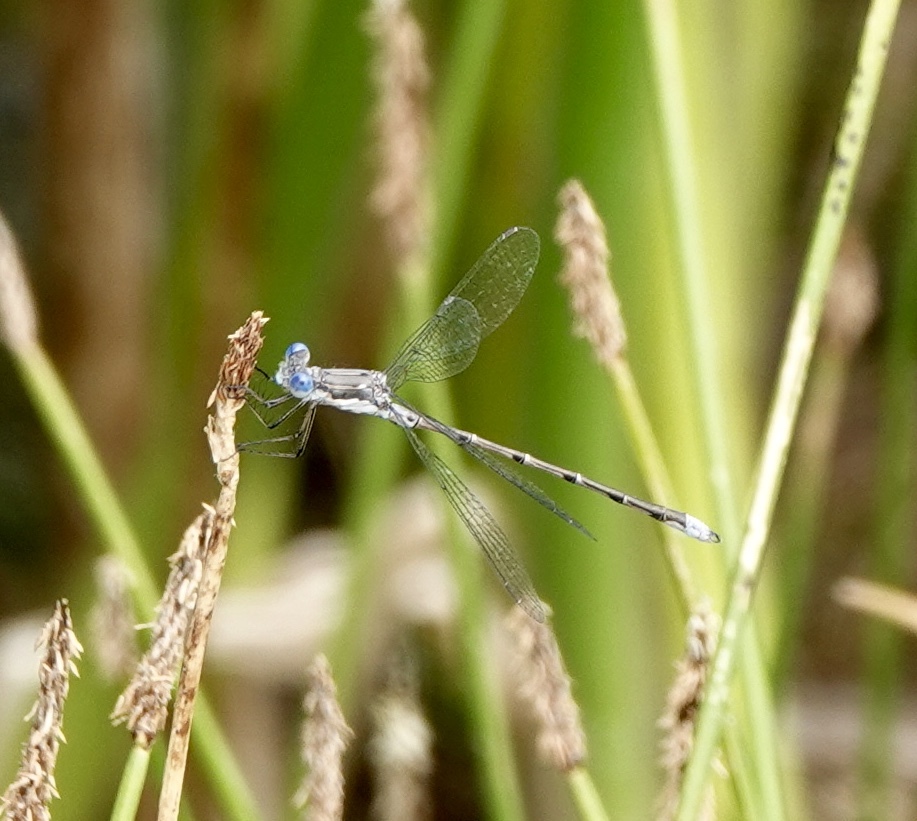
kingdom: Animalia
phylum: Arthropoda
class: Insecta
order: Odonata
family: Lestidae
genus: Lestes
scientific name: Lestes congener
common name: Spotted spreadwing
